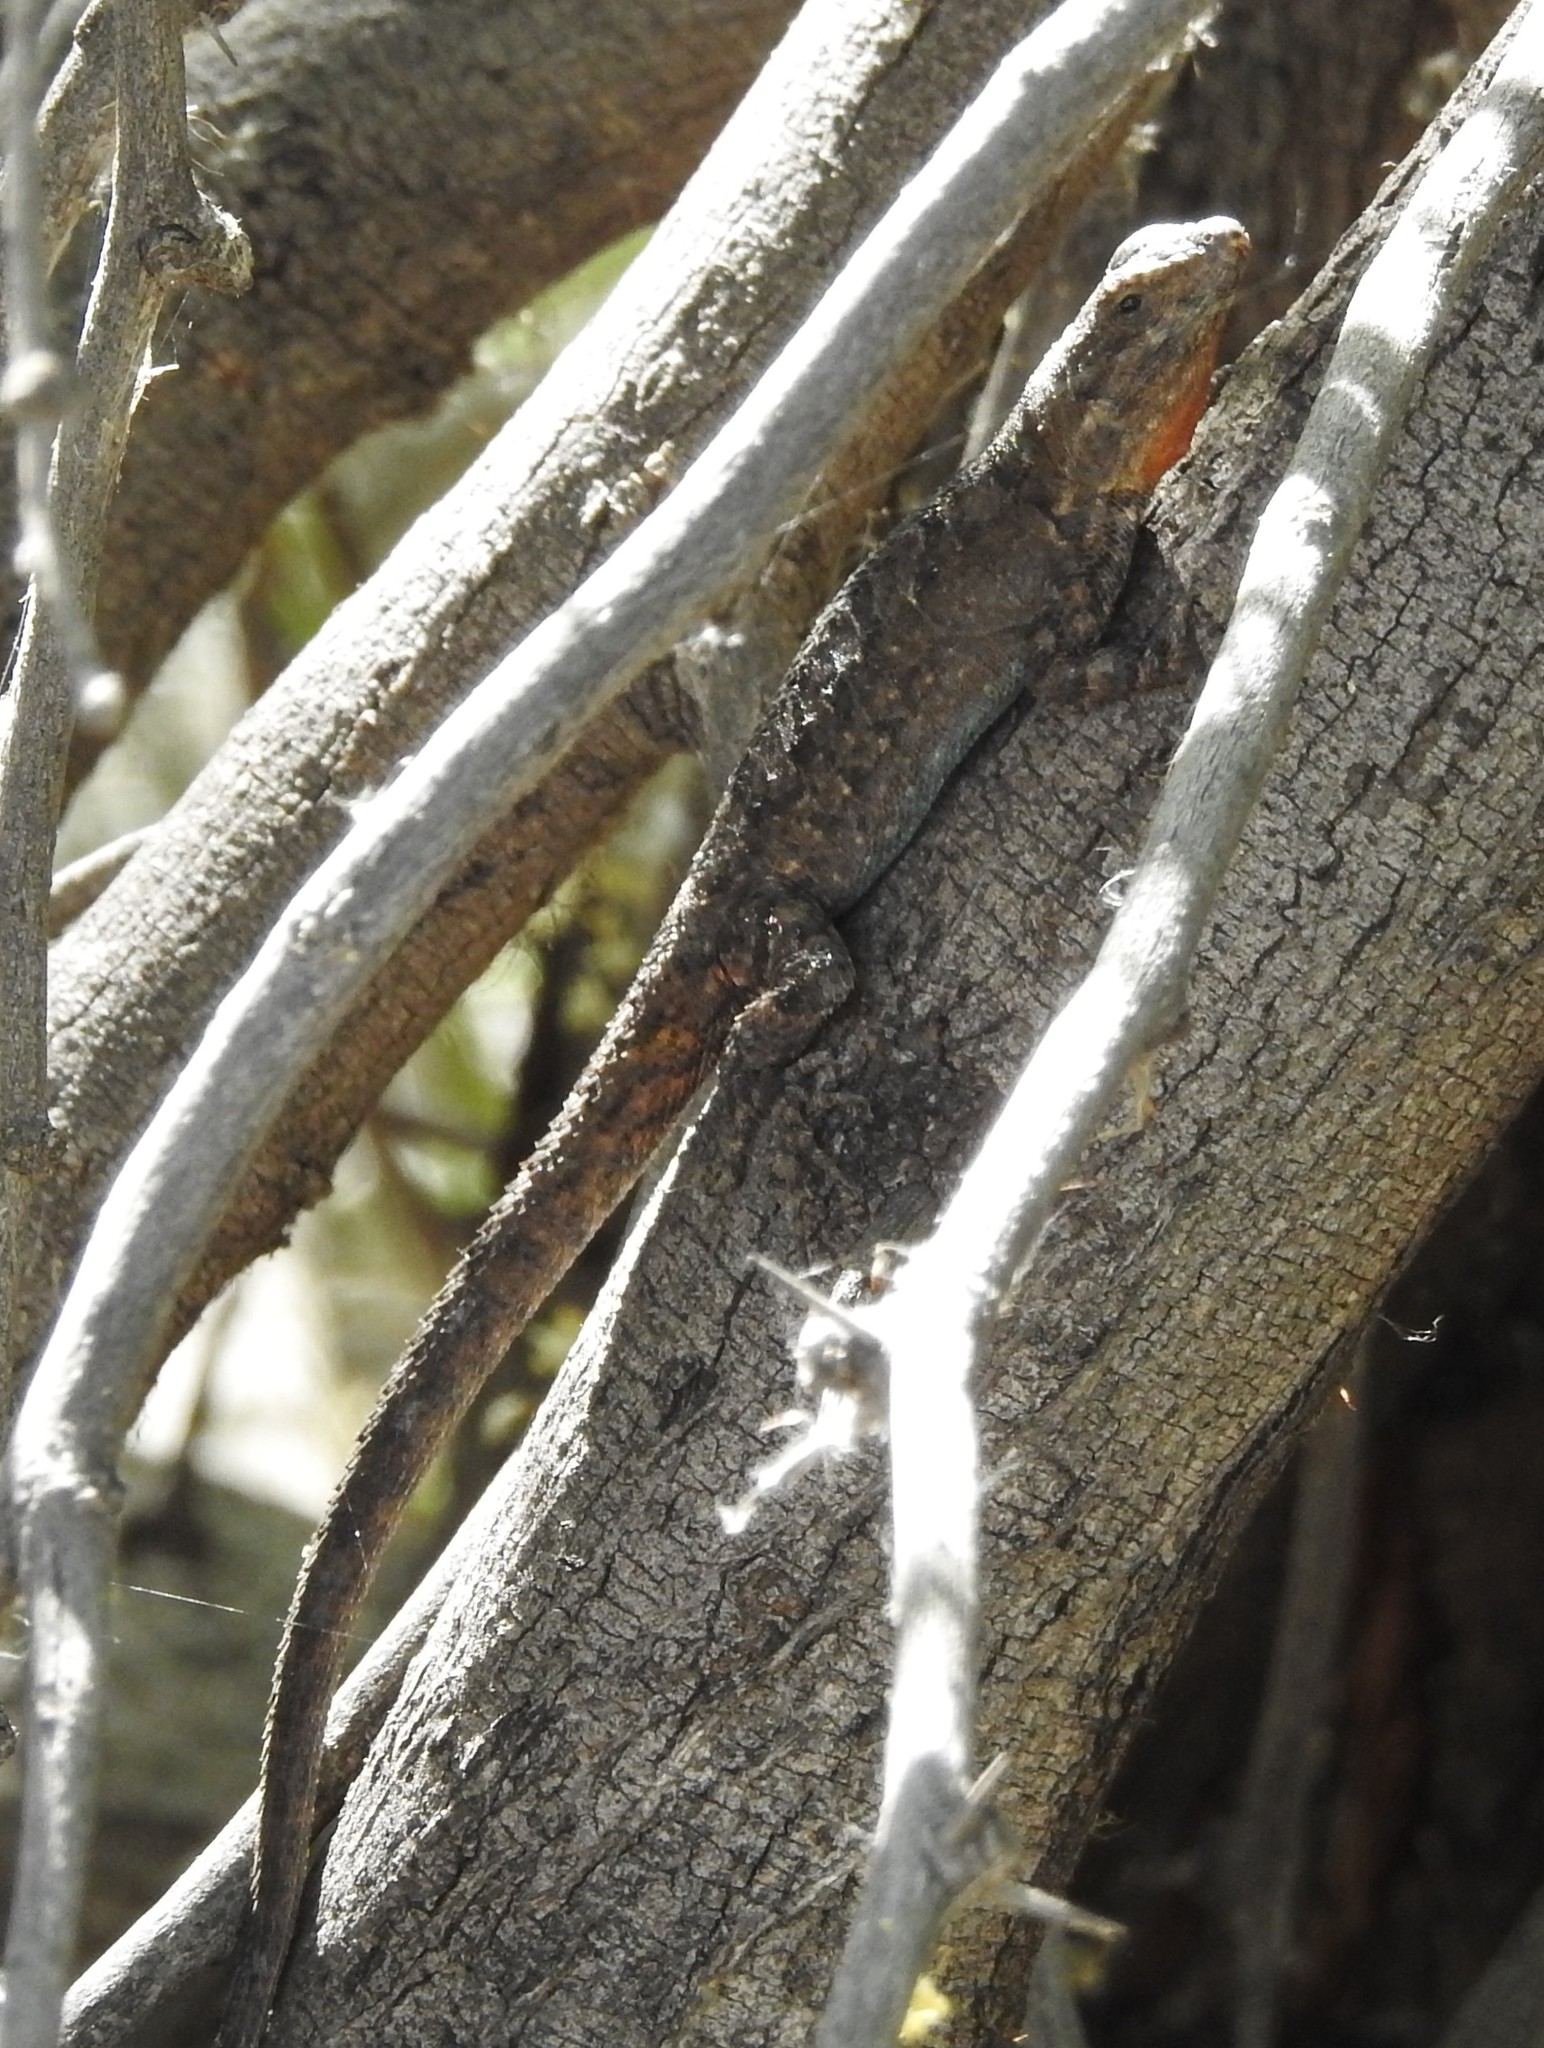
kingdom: Animalia
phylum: Chordata
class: Squamata
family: Phrynosomatidae
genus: Urosaurus
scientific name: Urosaurus ornatus
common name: Ornate tree lizard
